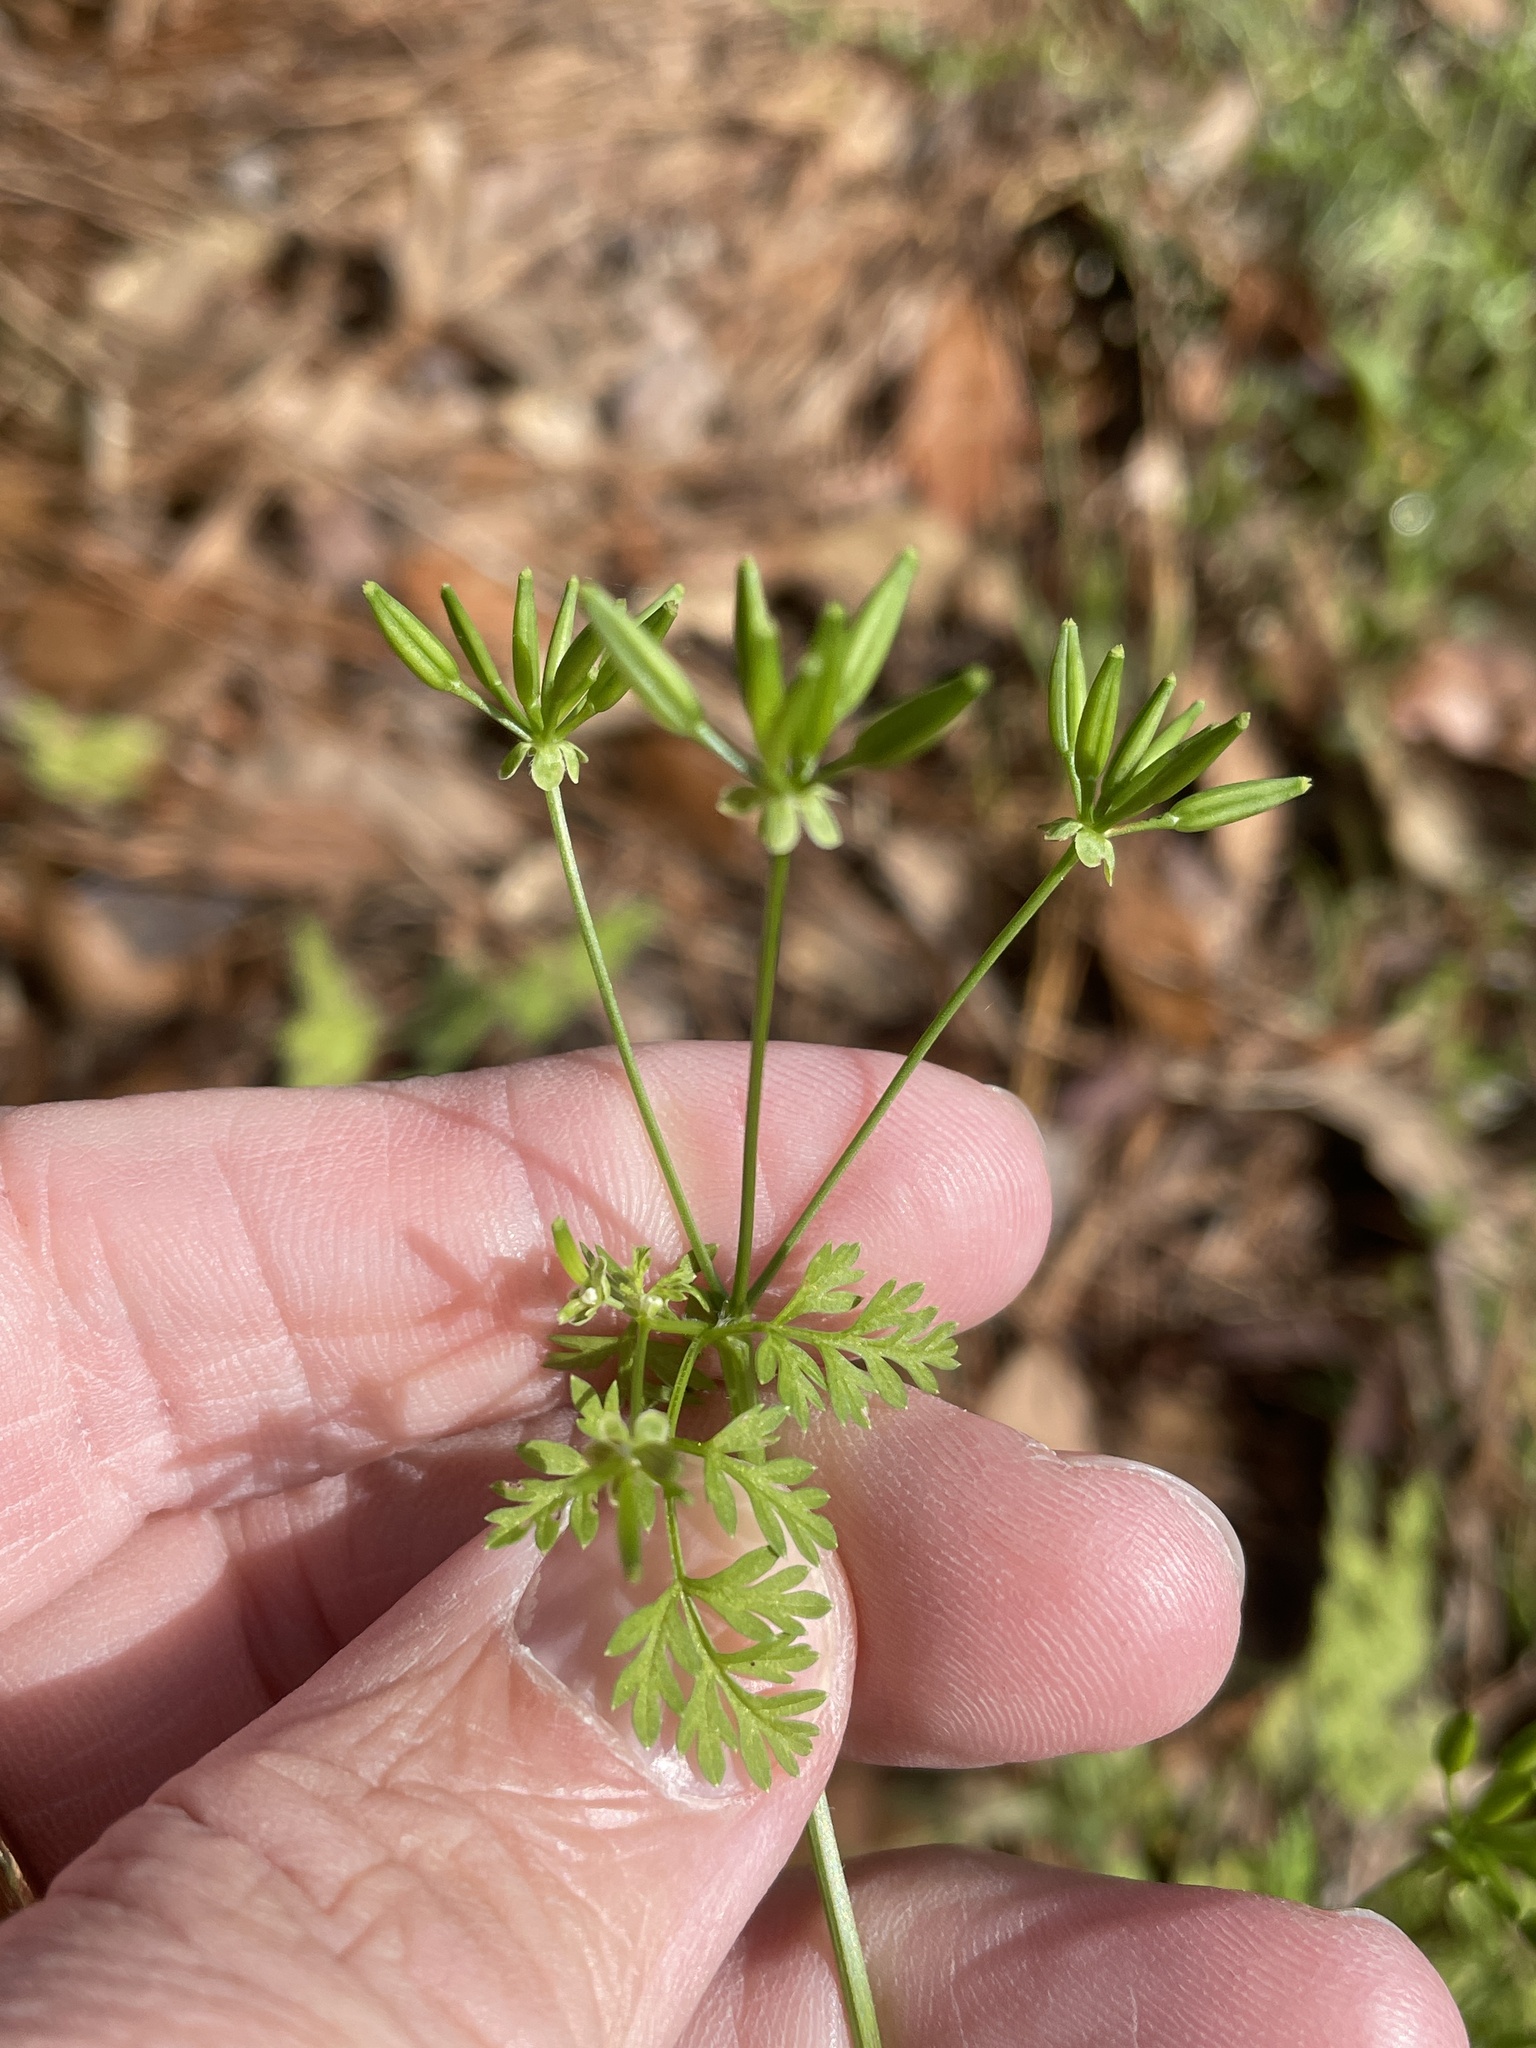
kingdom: Plantae
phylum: Tracheophyta
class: Magnoliopsida
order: Apiales
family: Apiaceae
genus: Chaerophyllum
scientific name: Chaerophyllum tainturieri
